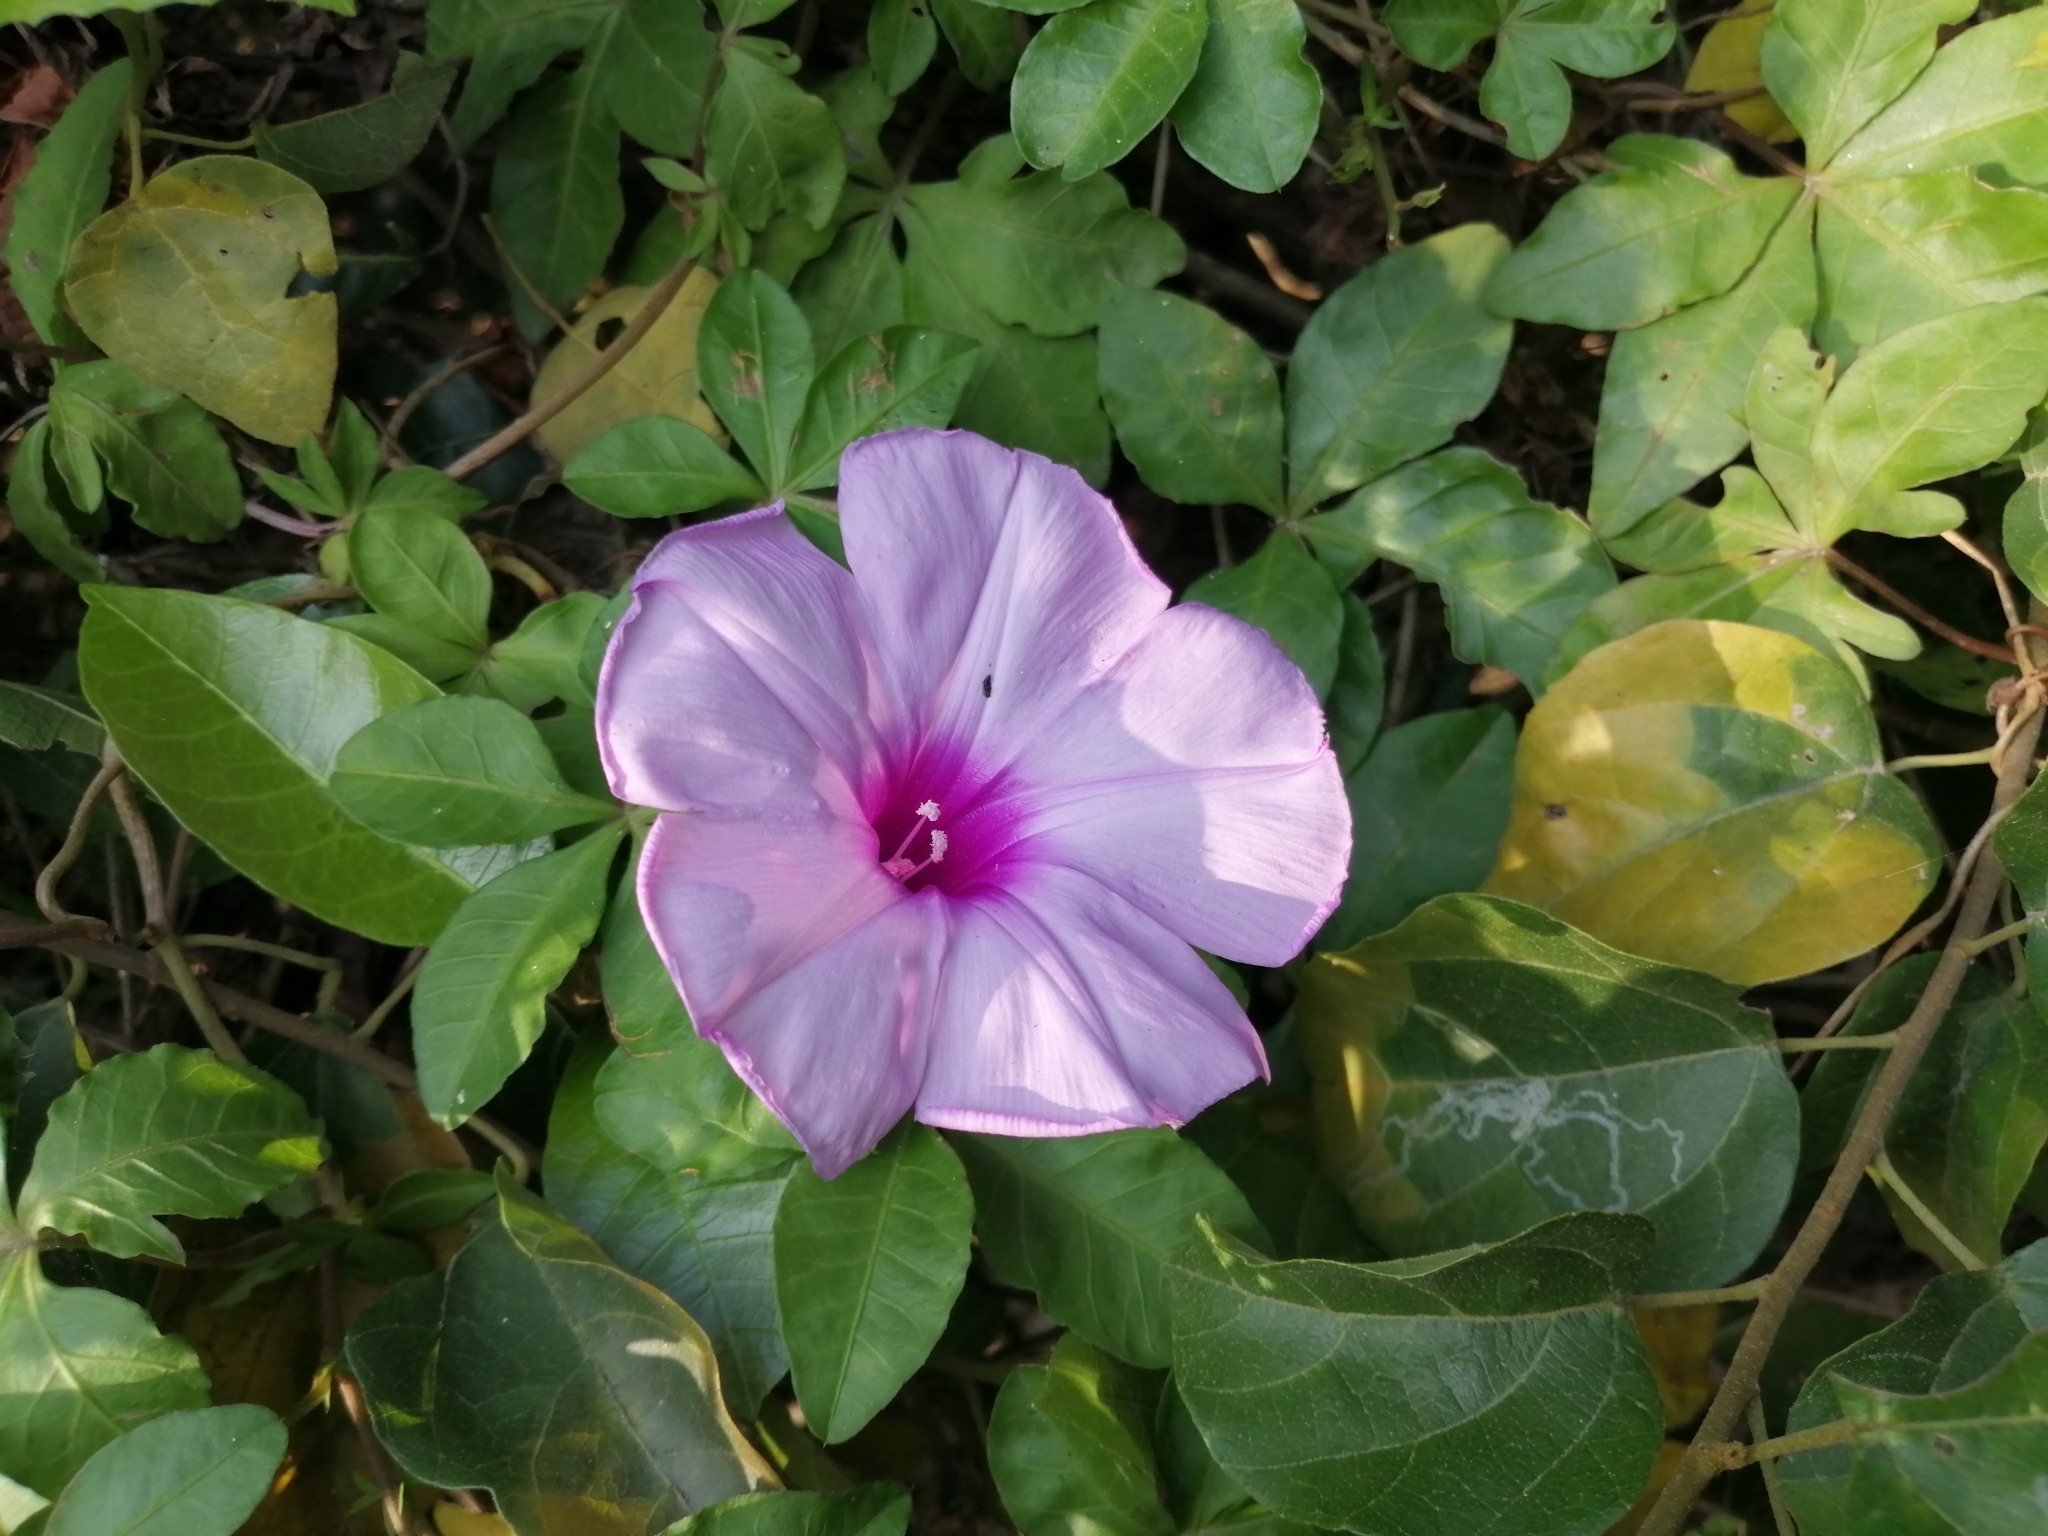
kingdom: Plantae
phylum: Tracheophyta
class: Magnoliopsida
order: Solanales
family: Convolvulaceae
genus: Ipomoea
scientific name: Ipomoea cairica
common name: Mile a minute vine
